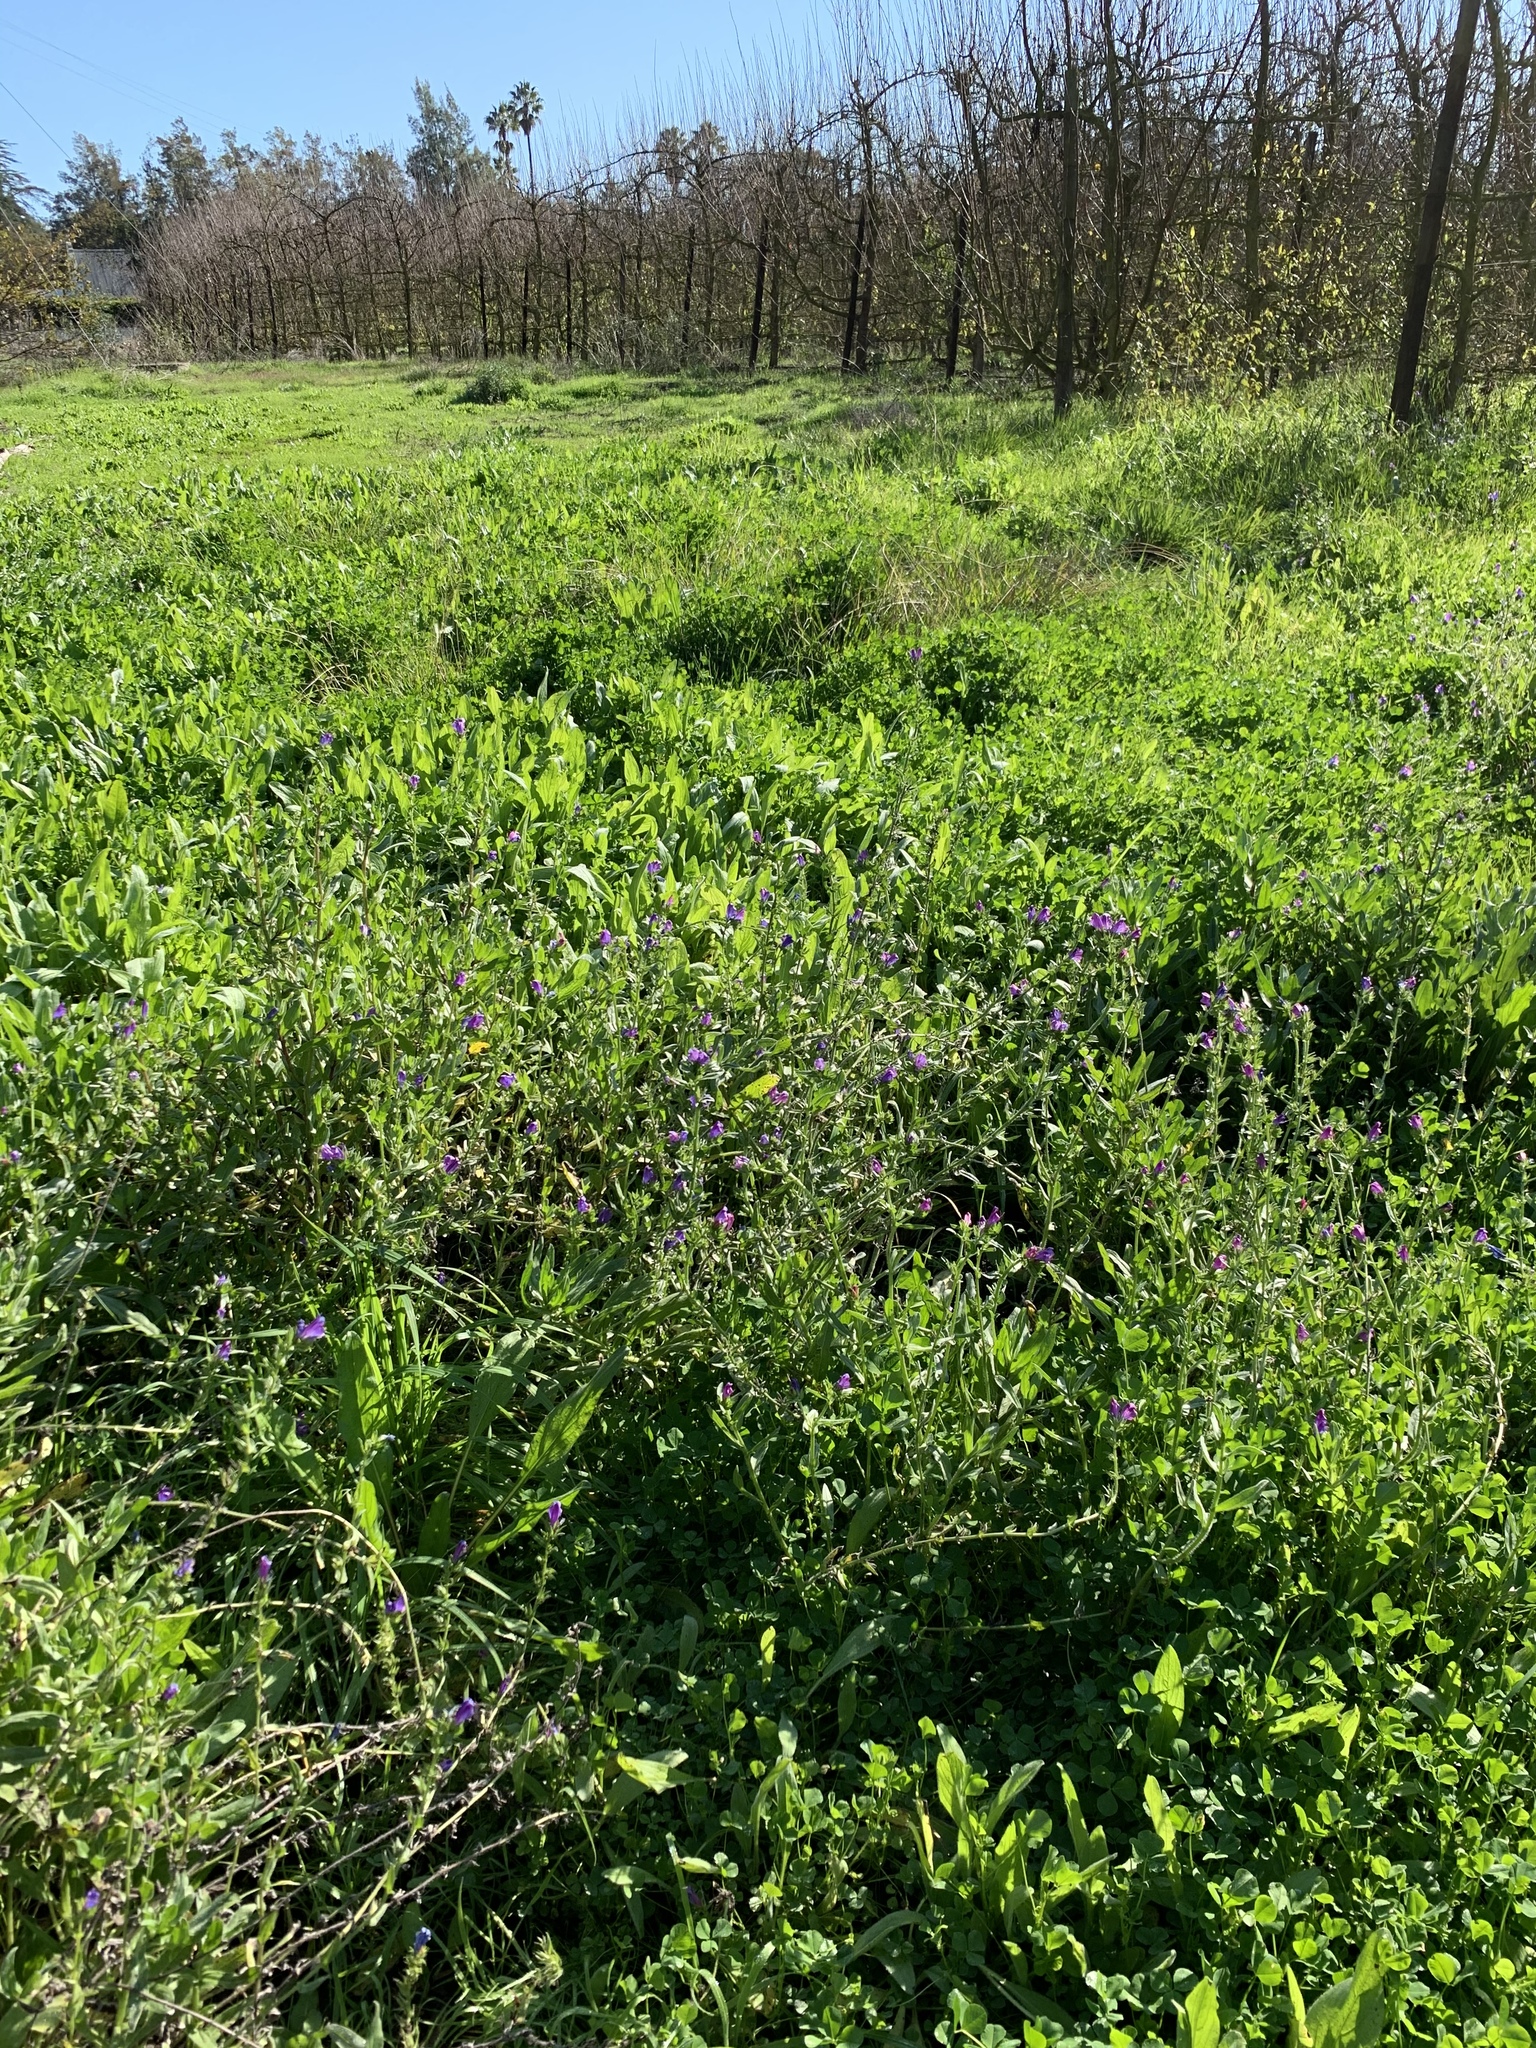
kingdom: Plantae
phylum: Tracheophyta
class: Magnoliopsida
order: Boraginales
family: Boraginaceae
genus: Echium
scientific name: Echium plantagineum
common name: Purple viper's-bugloss
